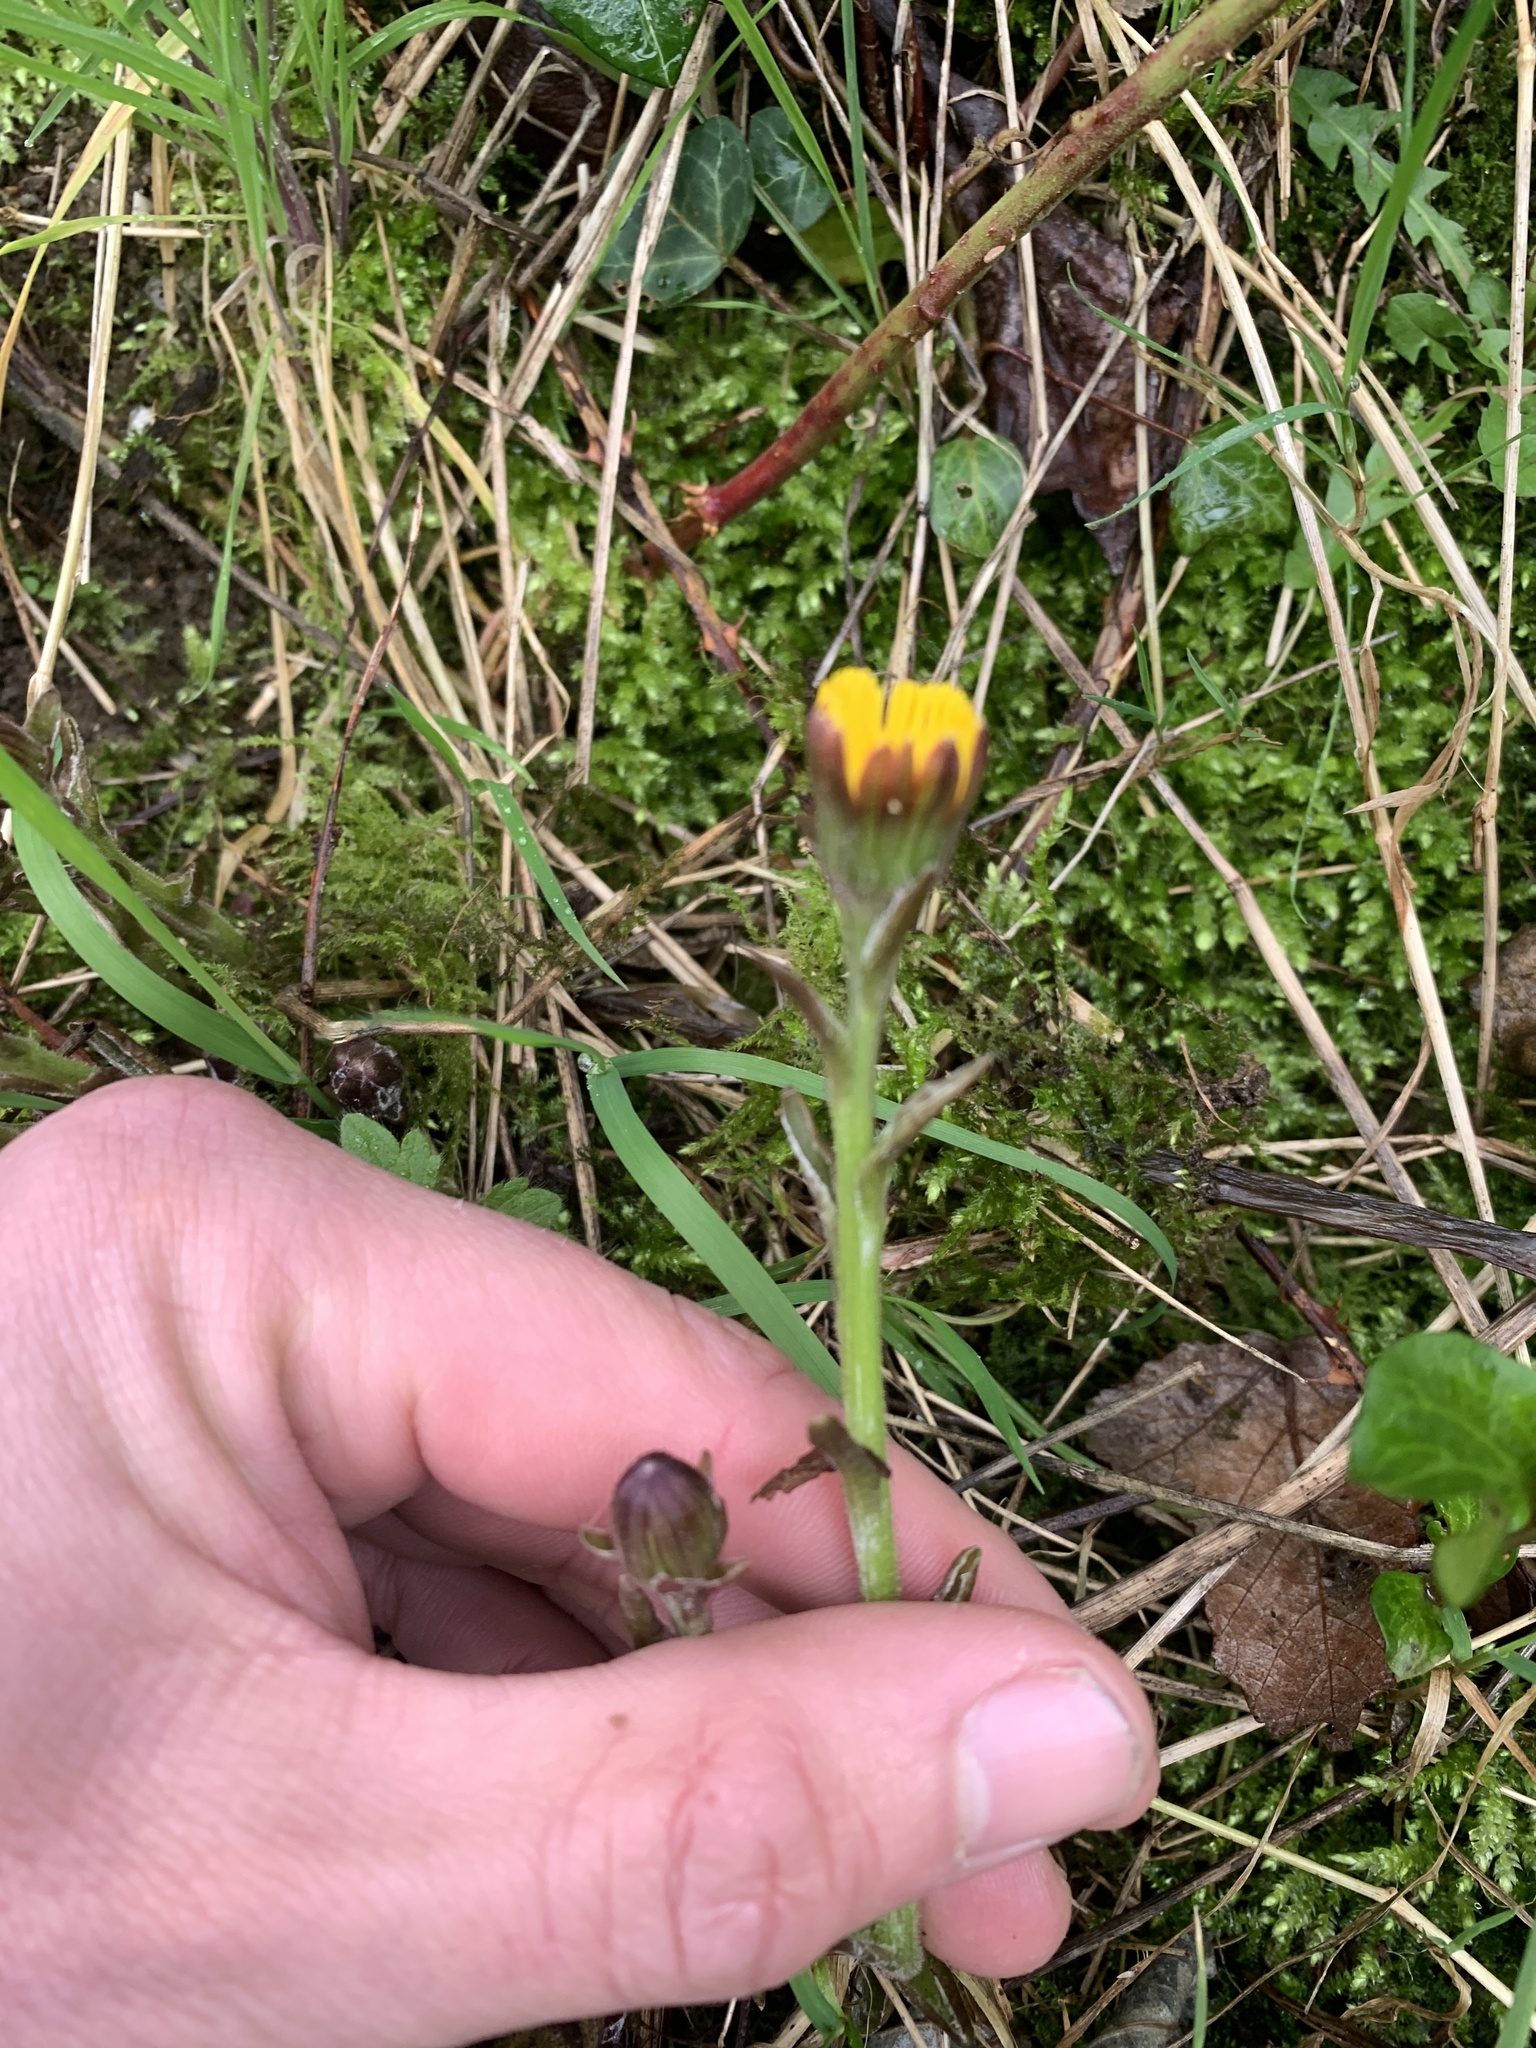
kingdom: Plantae
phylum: Tracheophyta
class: Magnoliopsida
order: Asterales
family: Asteraceae
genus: Tussilago
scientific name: Tussilago farfara
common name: Coltsfoot
